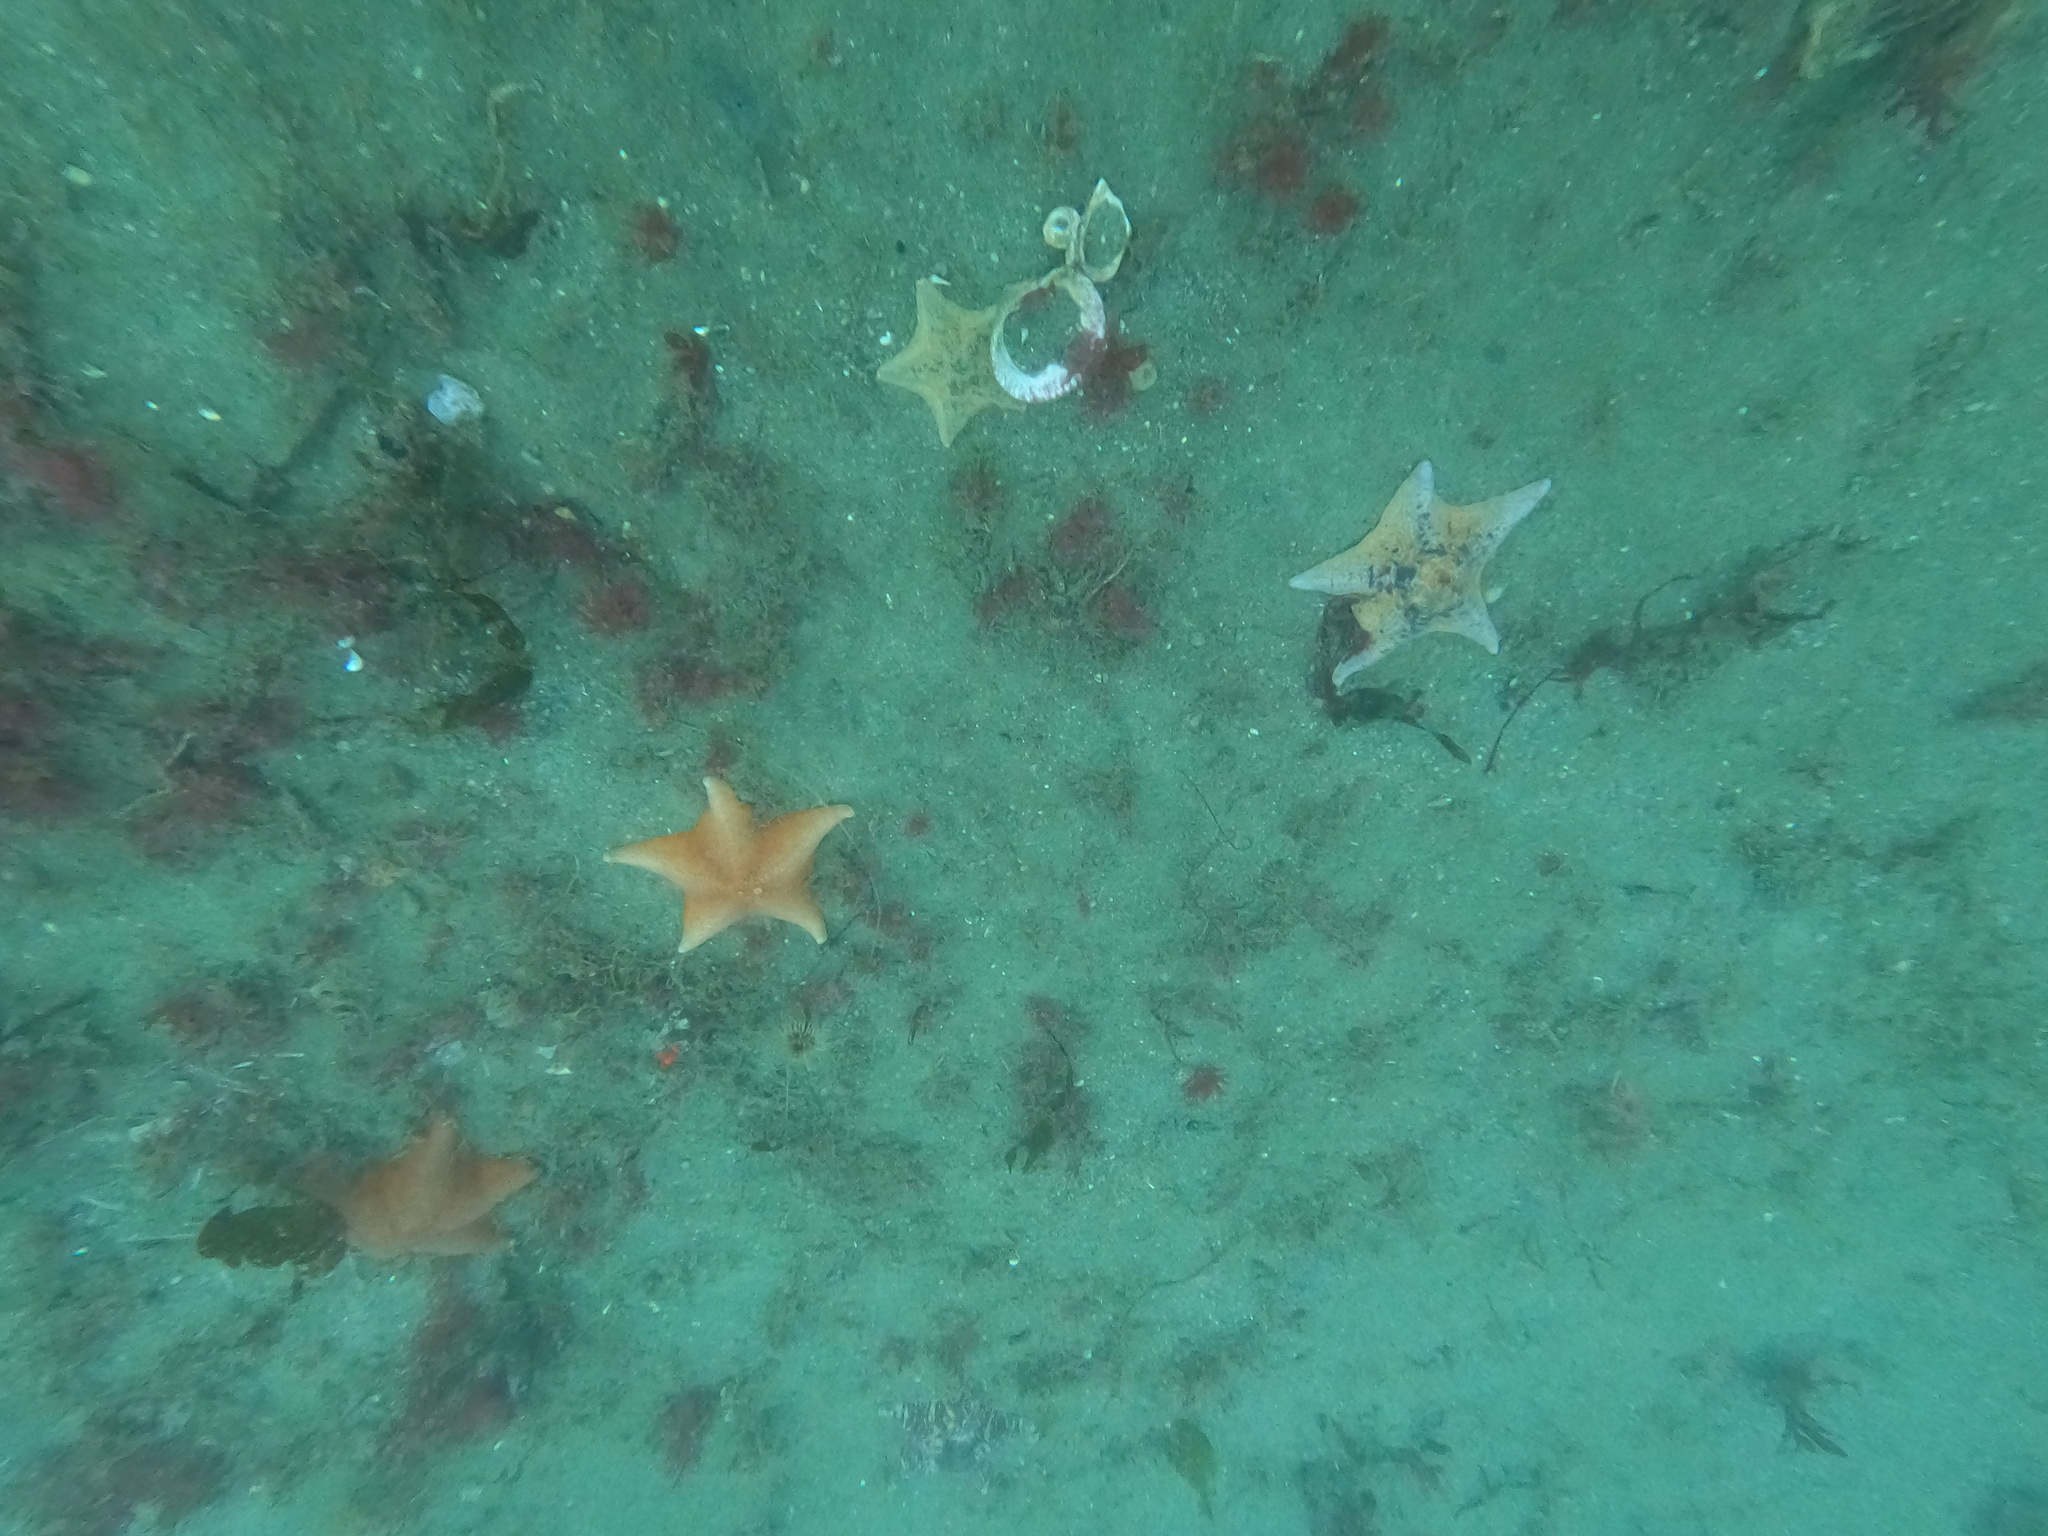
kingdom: Animalia
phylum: Echinodermata
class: Asteroidea
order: Valvatida
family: Asterinidae
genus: Patiria
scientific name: Patiria miniata
